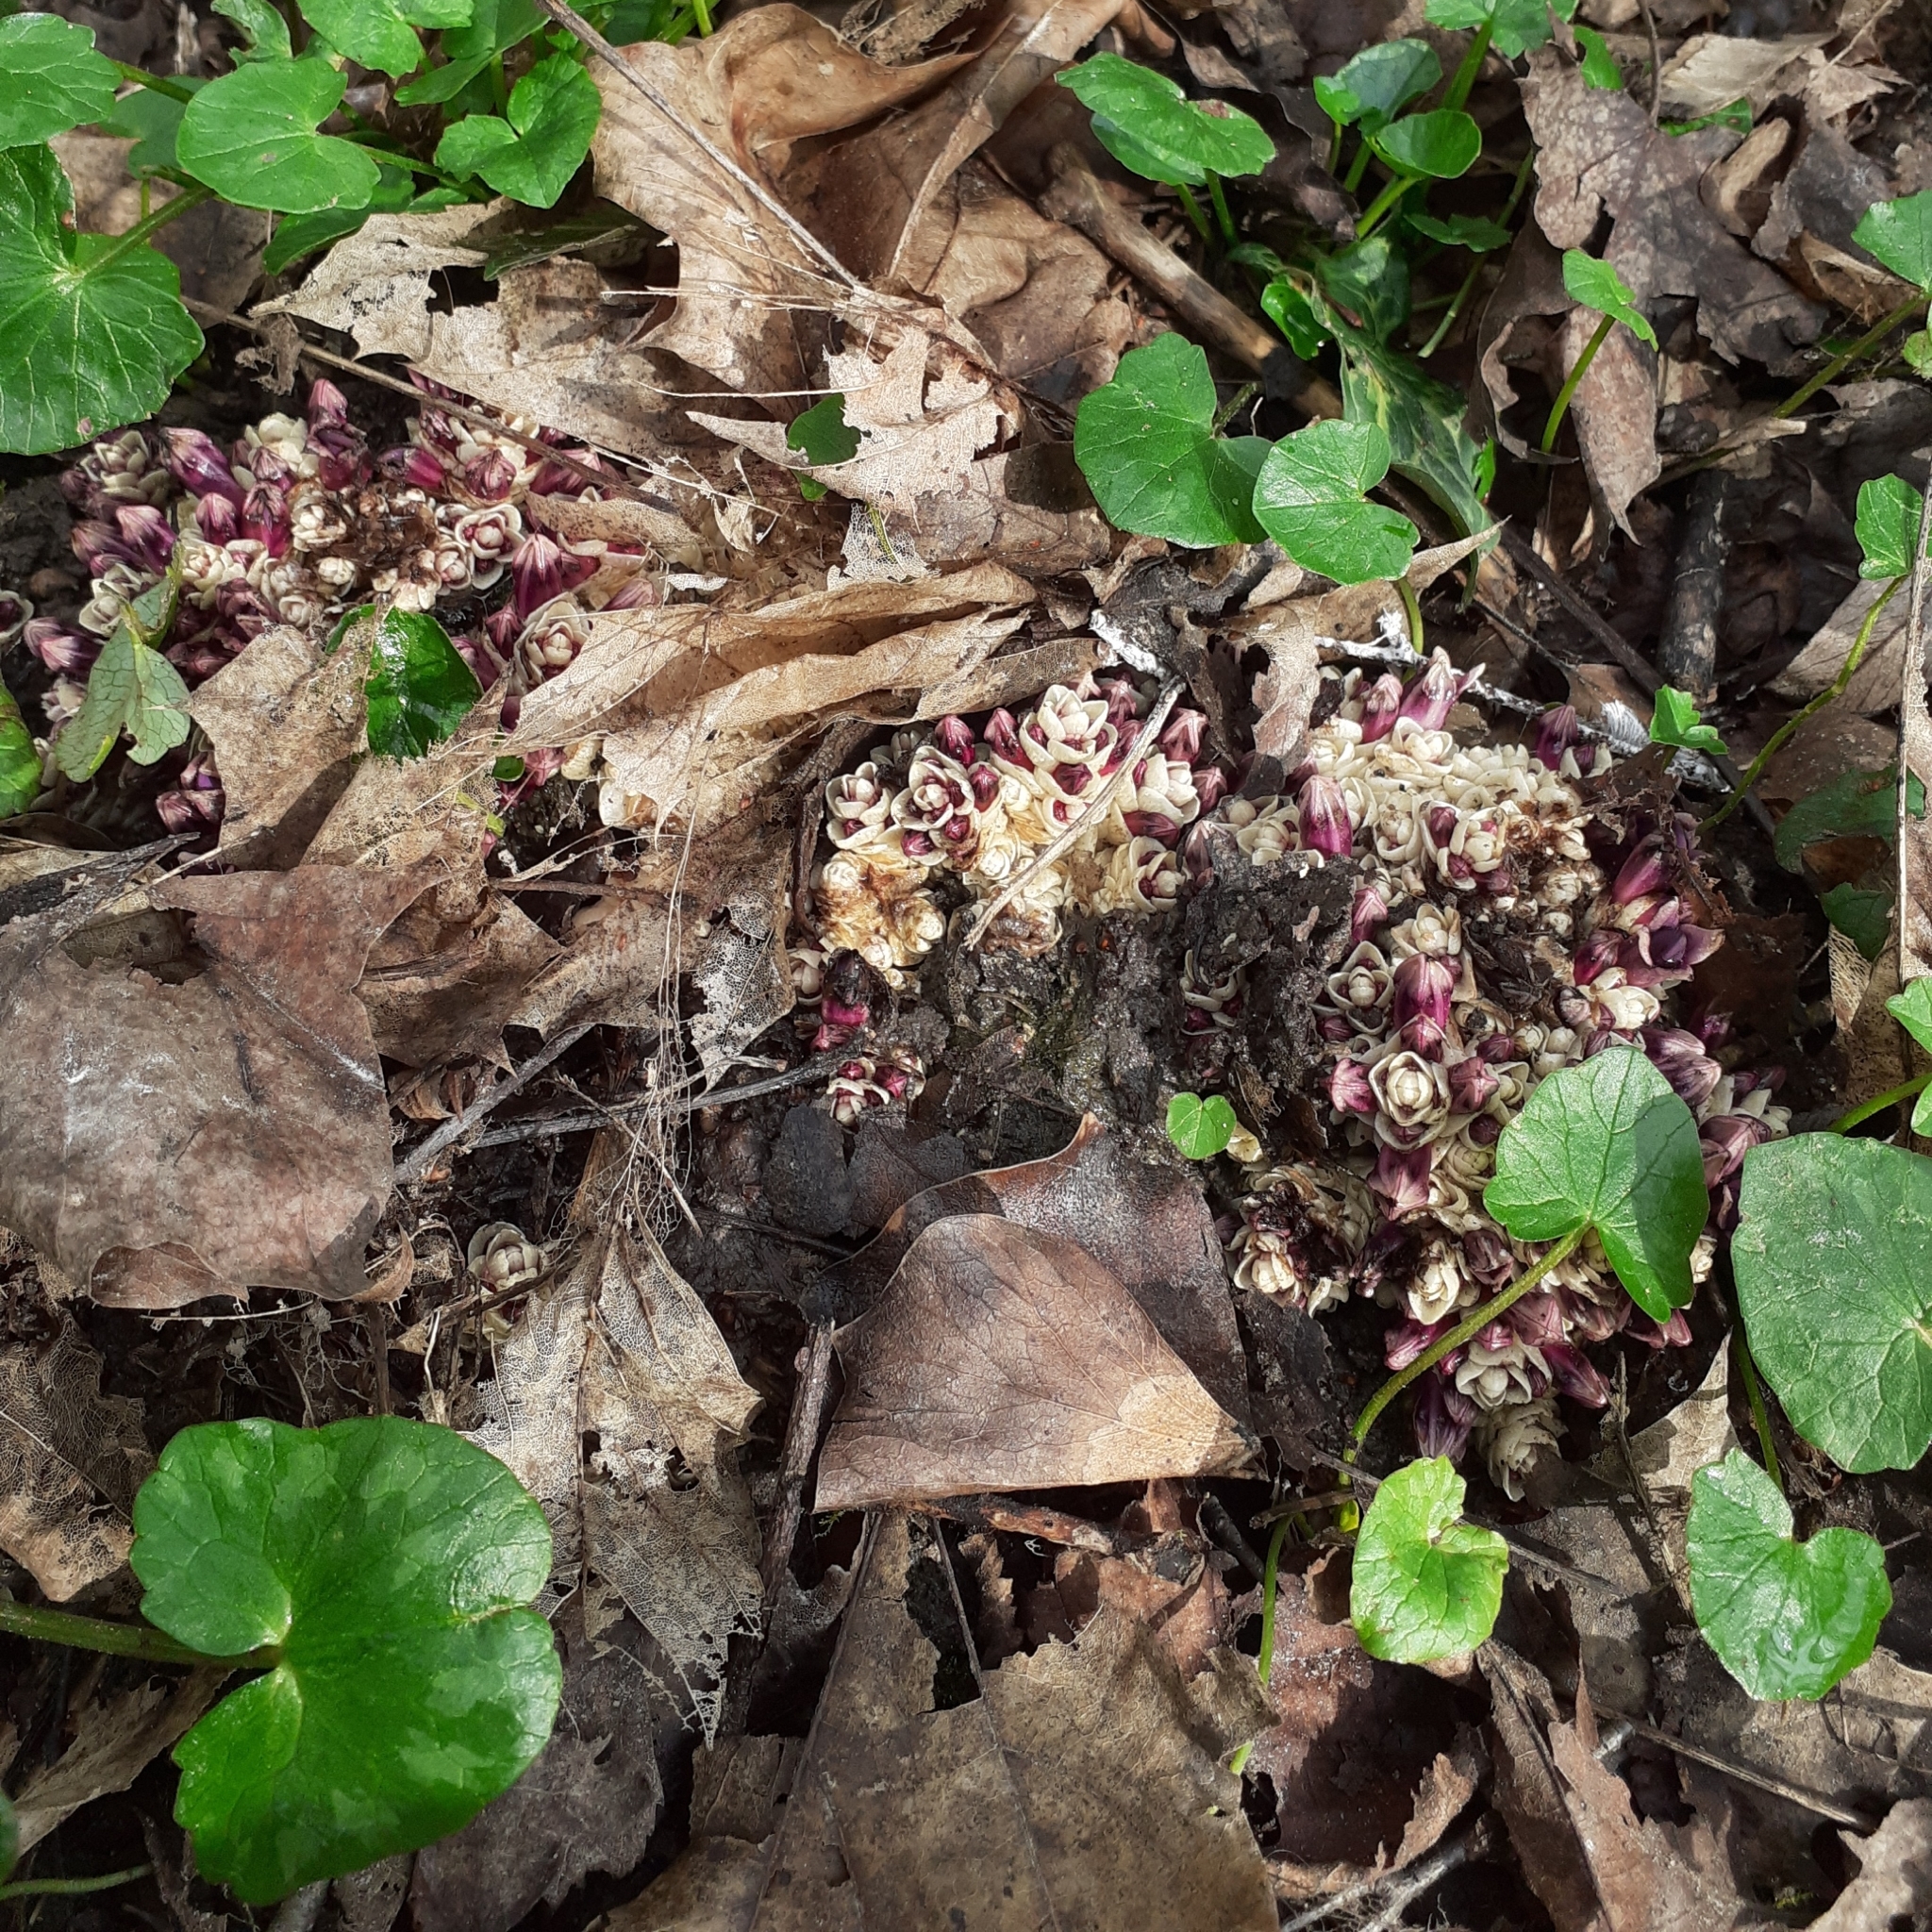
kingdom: Plantae
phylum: Tracheophyta
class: Magnoliopsida
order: Lamiales
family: Orobanchaceae
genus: Lathraea
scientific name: Lathraea clandestina
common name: Purple toothwort
